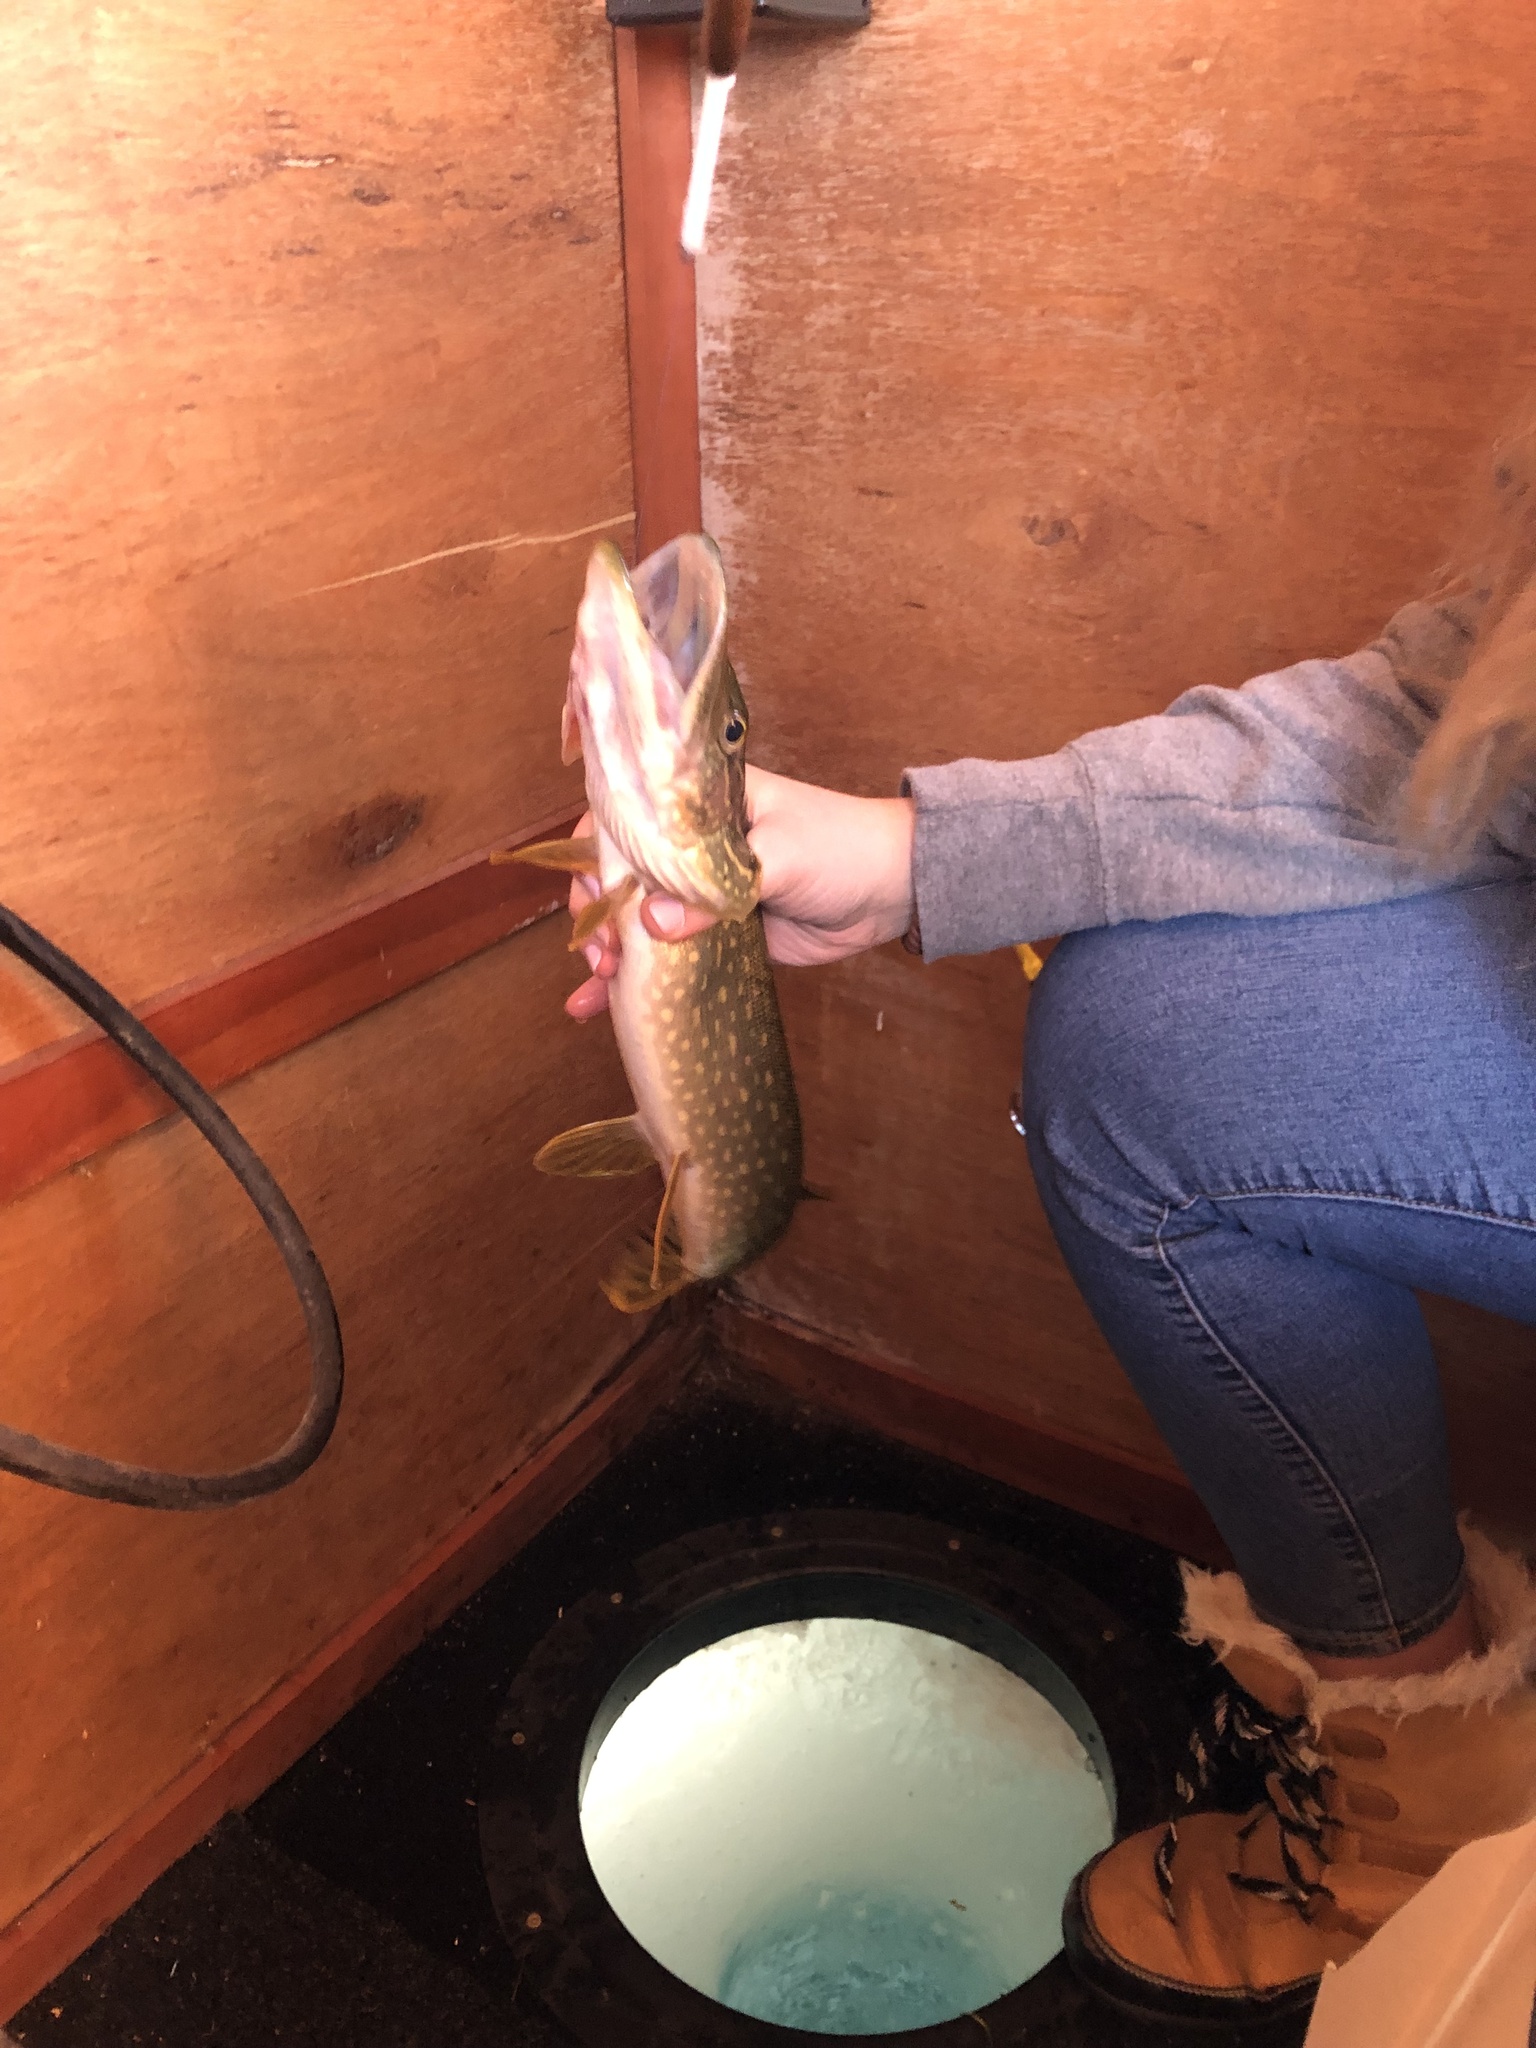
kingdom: Animalia
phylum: Chordata
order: Esociformes
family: Esocidae
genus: Esox
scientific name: Esox lucius
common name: Northern pike
